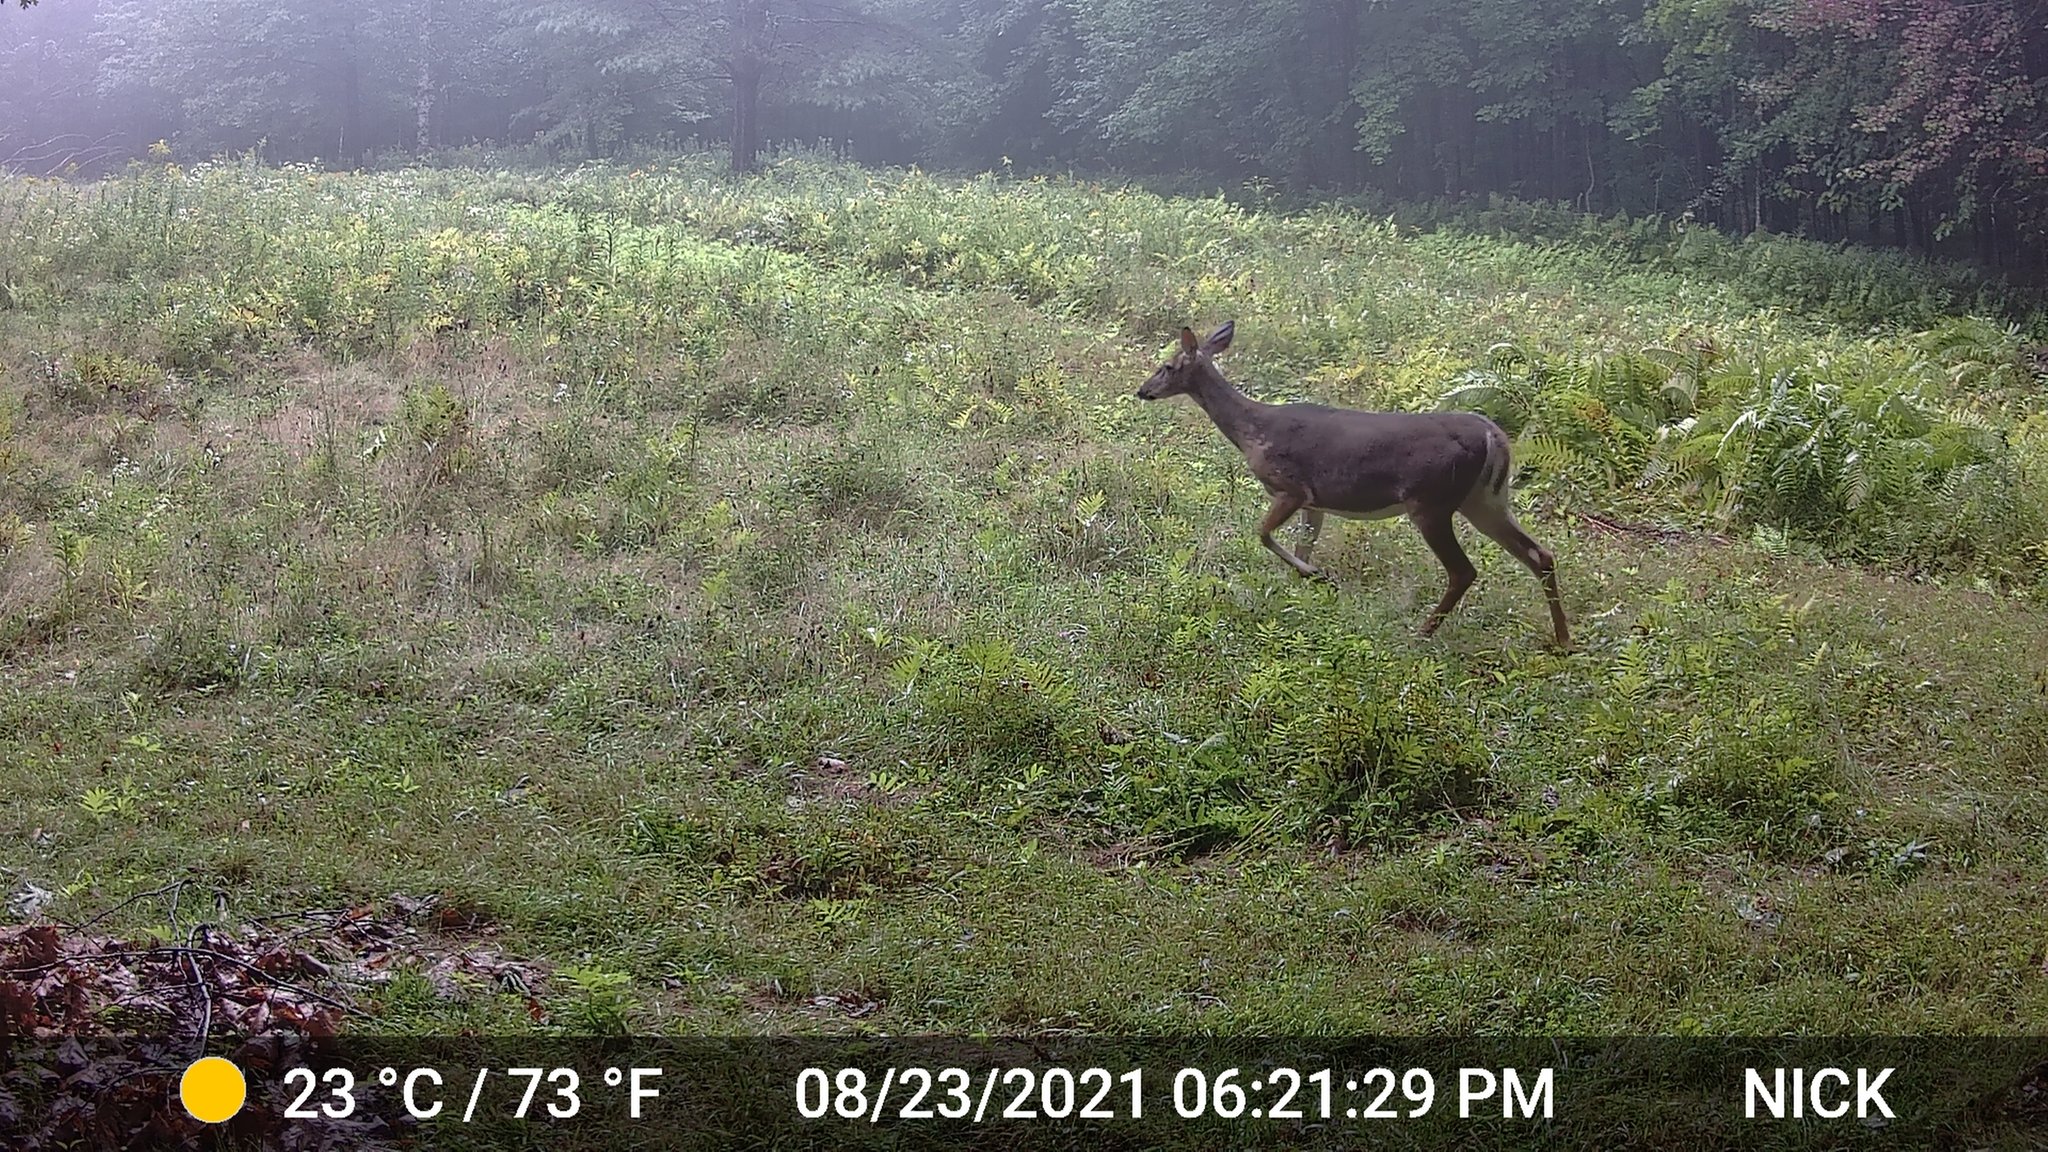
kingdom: Animalia
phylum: Chordata
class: Mammalia
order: Artiodactyla
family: Cervidae
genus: Odocoileus
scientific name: Odocoileus virginianus
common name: White-tailed deer
